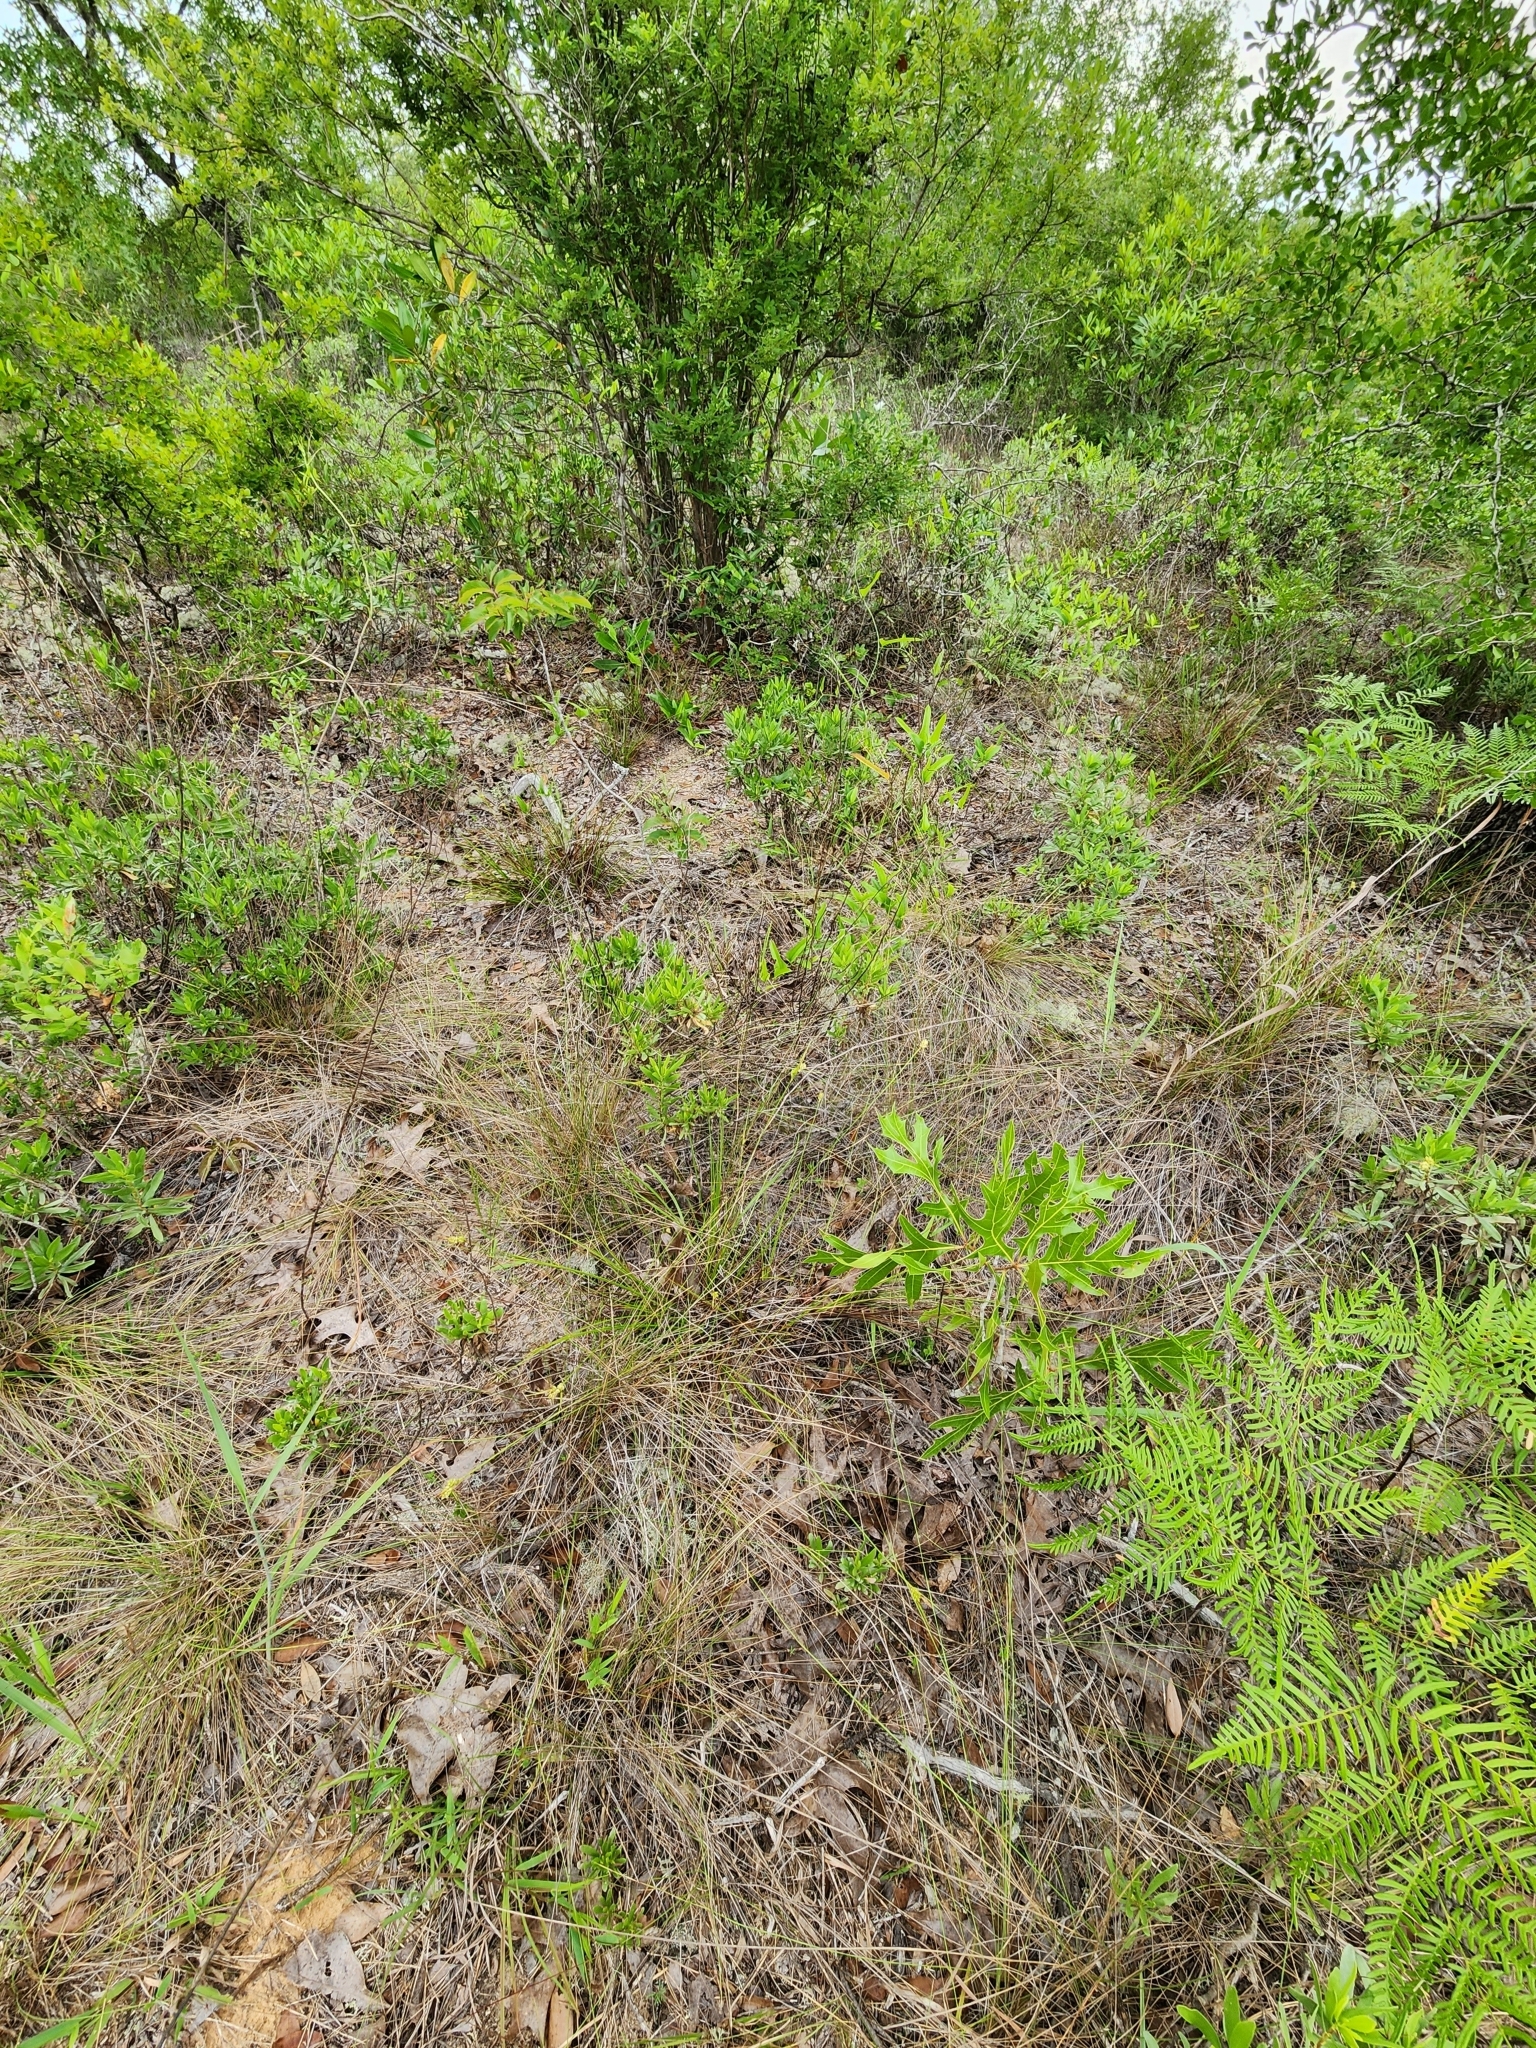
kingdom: Plantae
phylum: Tracheophyta
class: Liliopsida
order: Poales
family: Cyperaceae
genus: Carex
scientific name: Carex tenax
